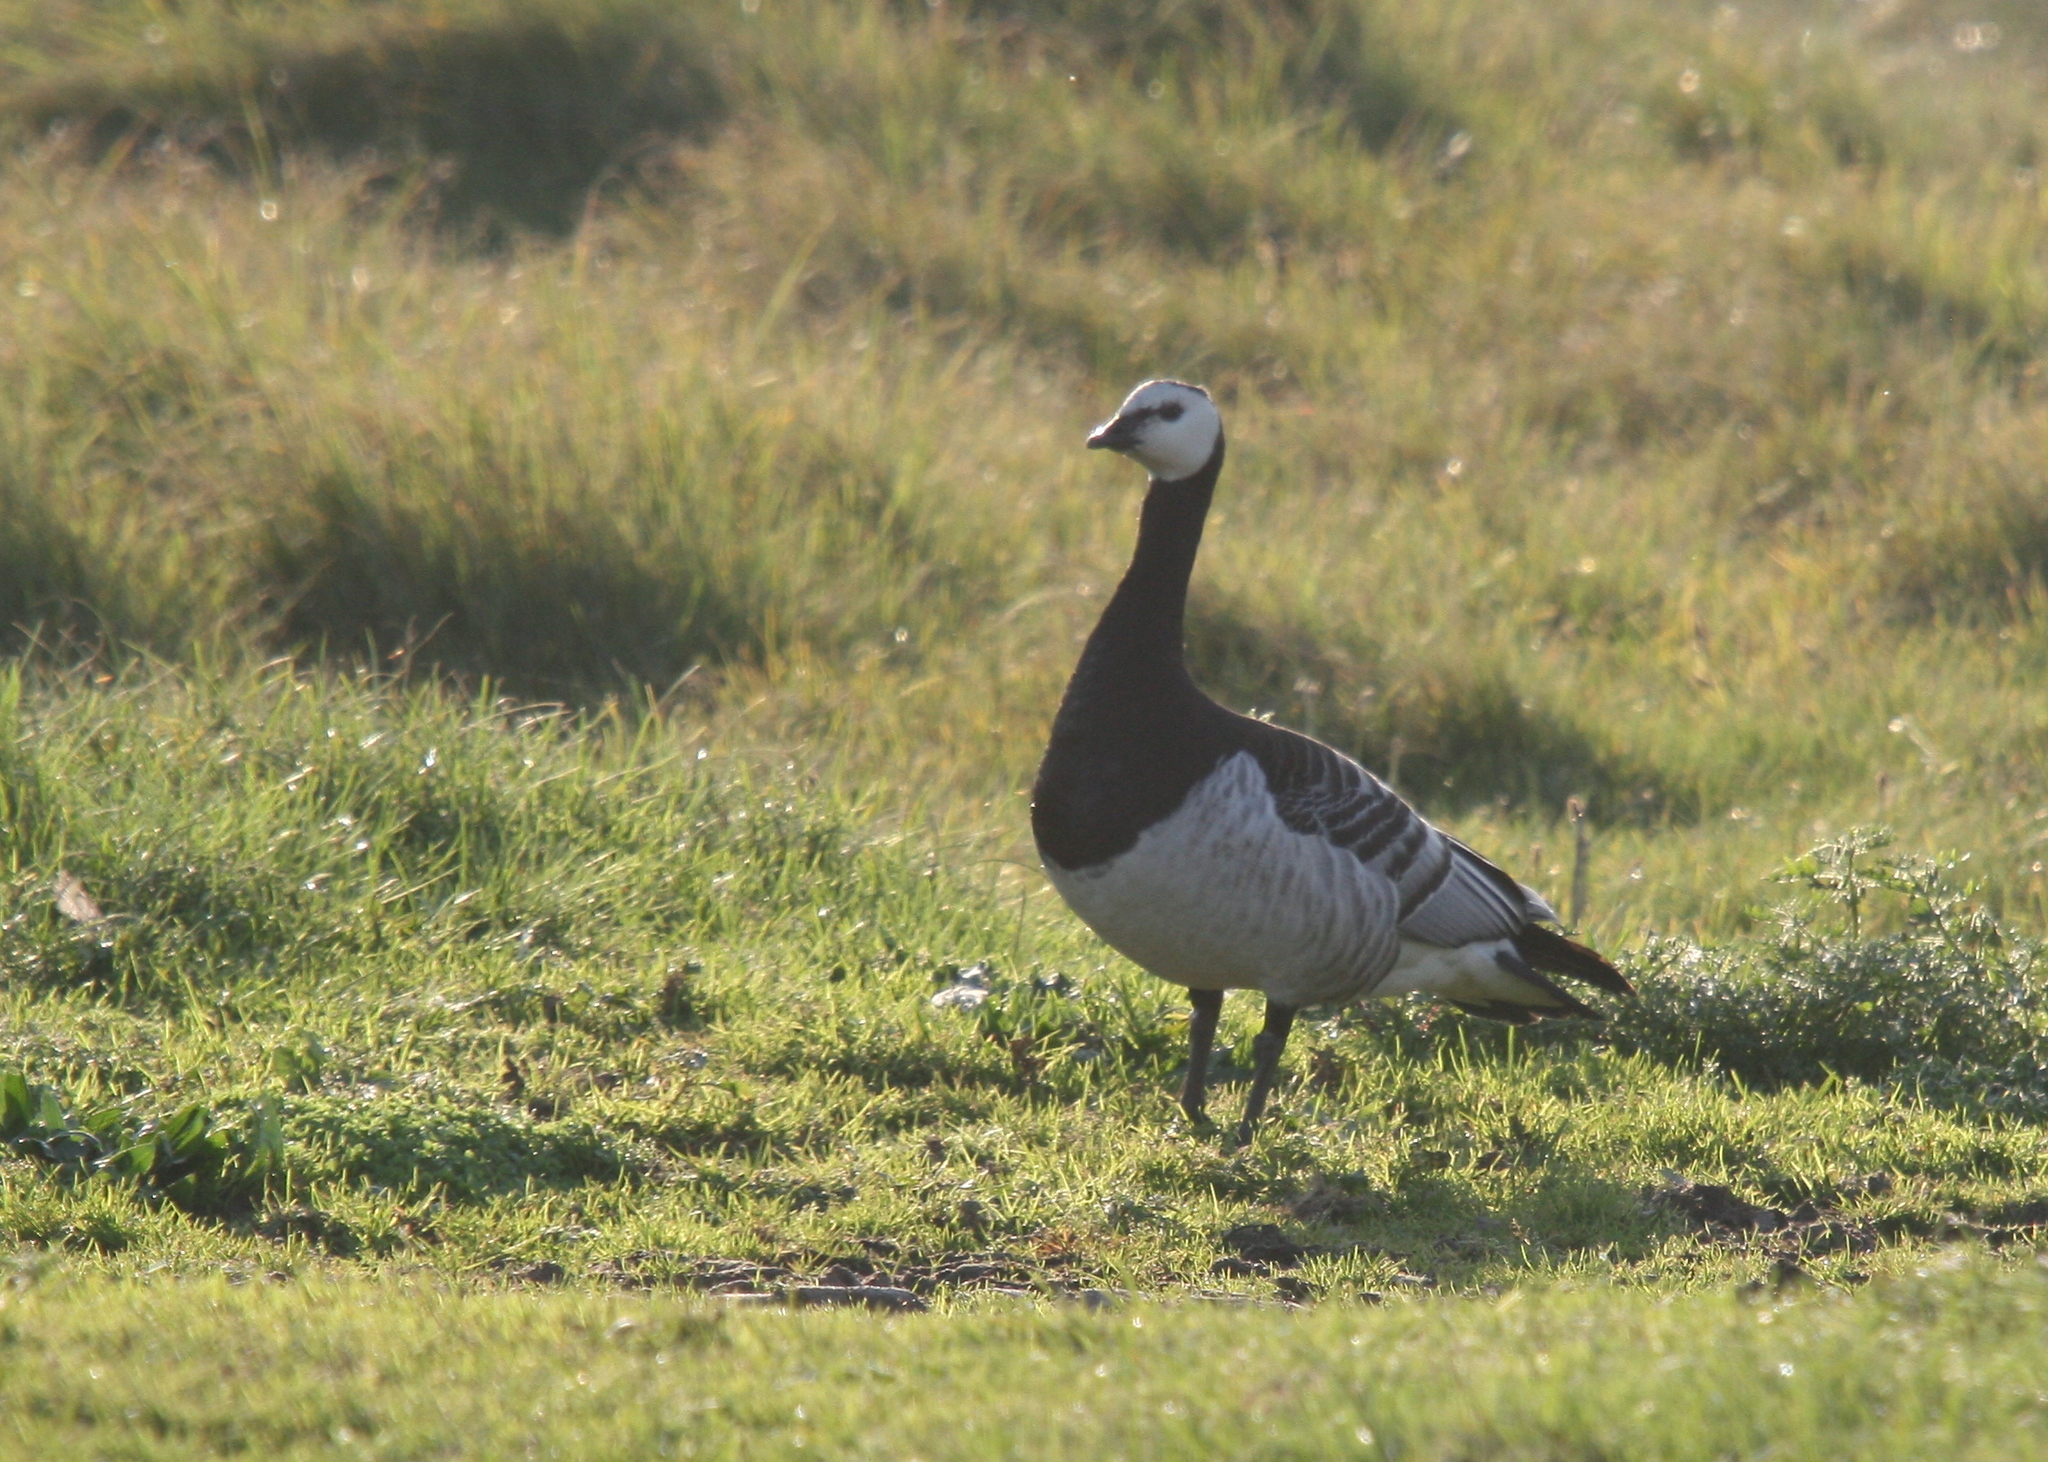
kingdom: Animalia
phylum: Chordata
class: Aves
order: Anseriformes
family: Anatidae
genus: Branta
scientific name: Branta leucopsis
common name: Barnacle goose
